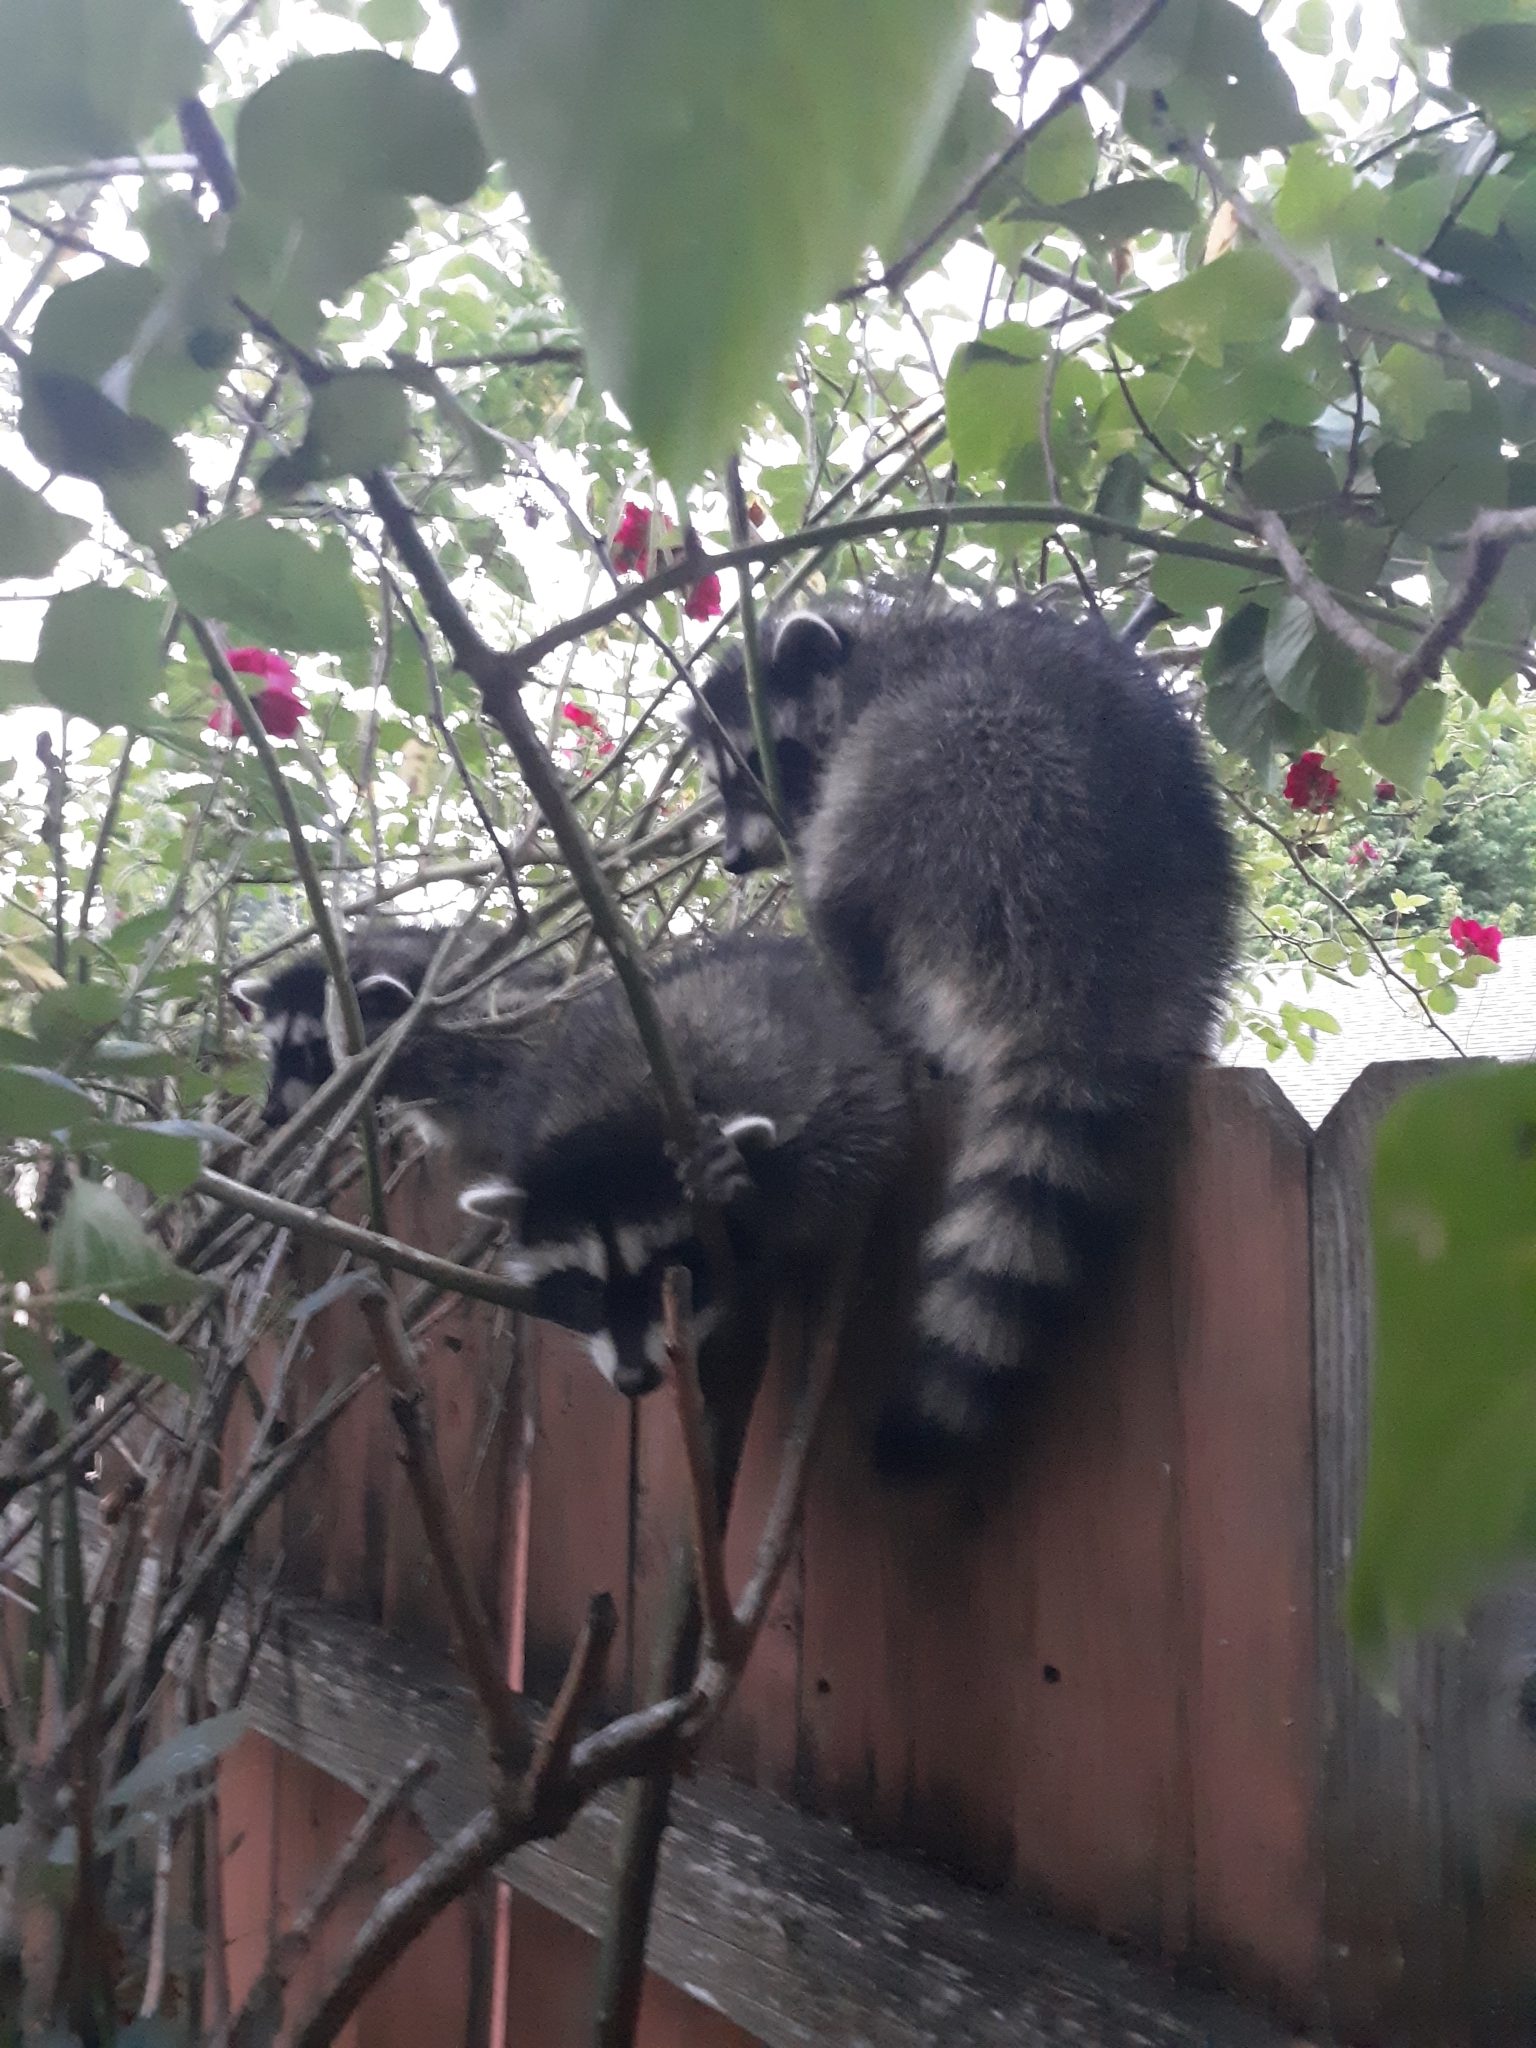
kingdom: Animalia
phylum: Chordata
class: Mammalia
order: Carnivora
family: Procyonidae
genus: Procyon
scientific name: Procyon lotor
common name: Raccoon
